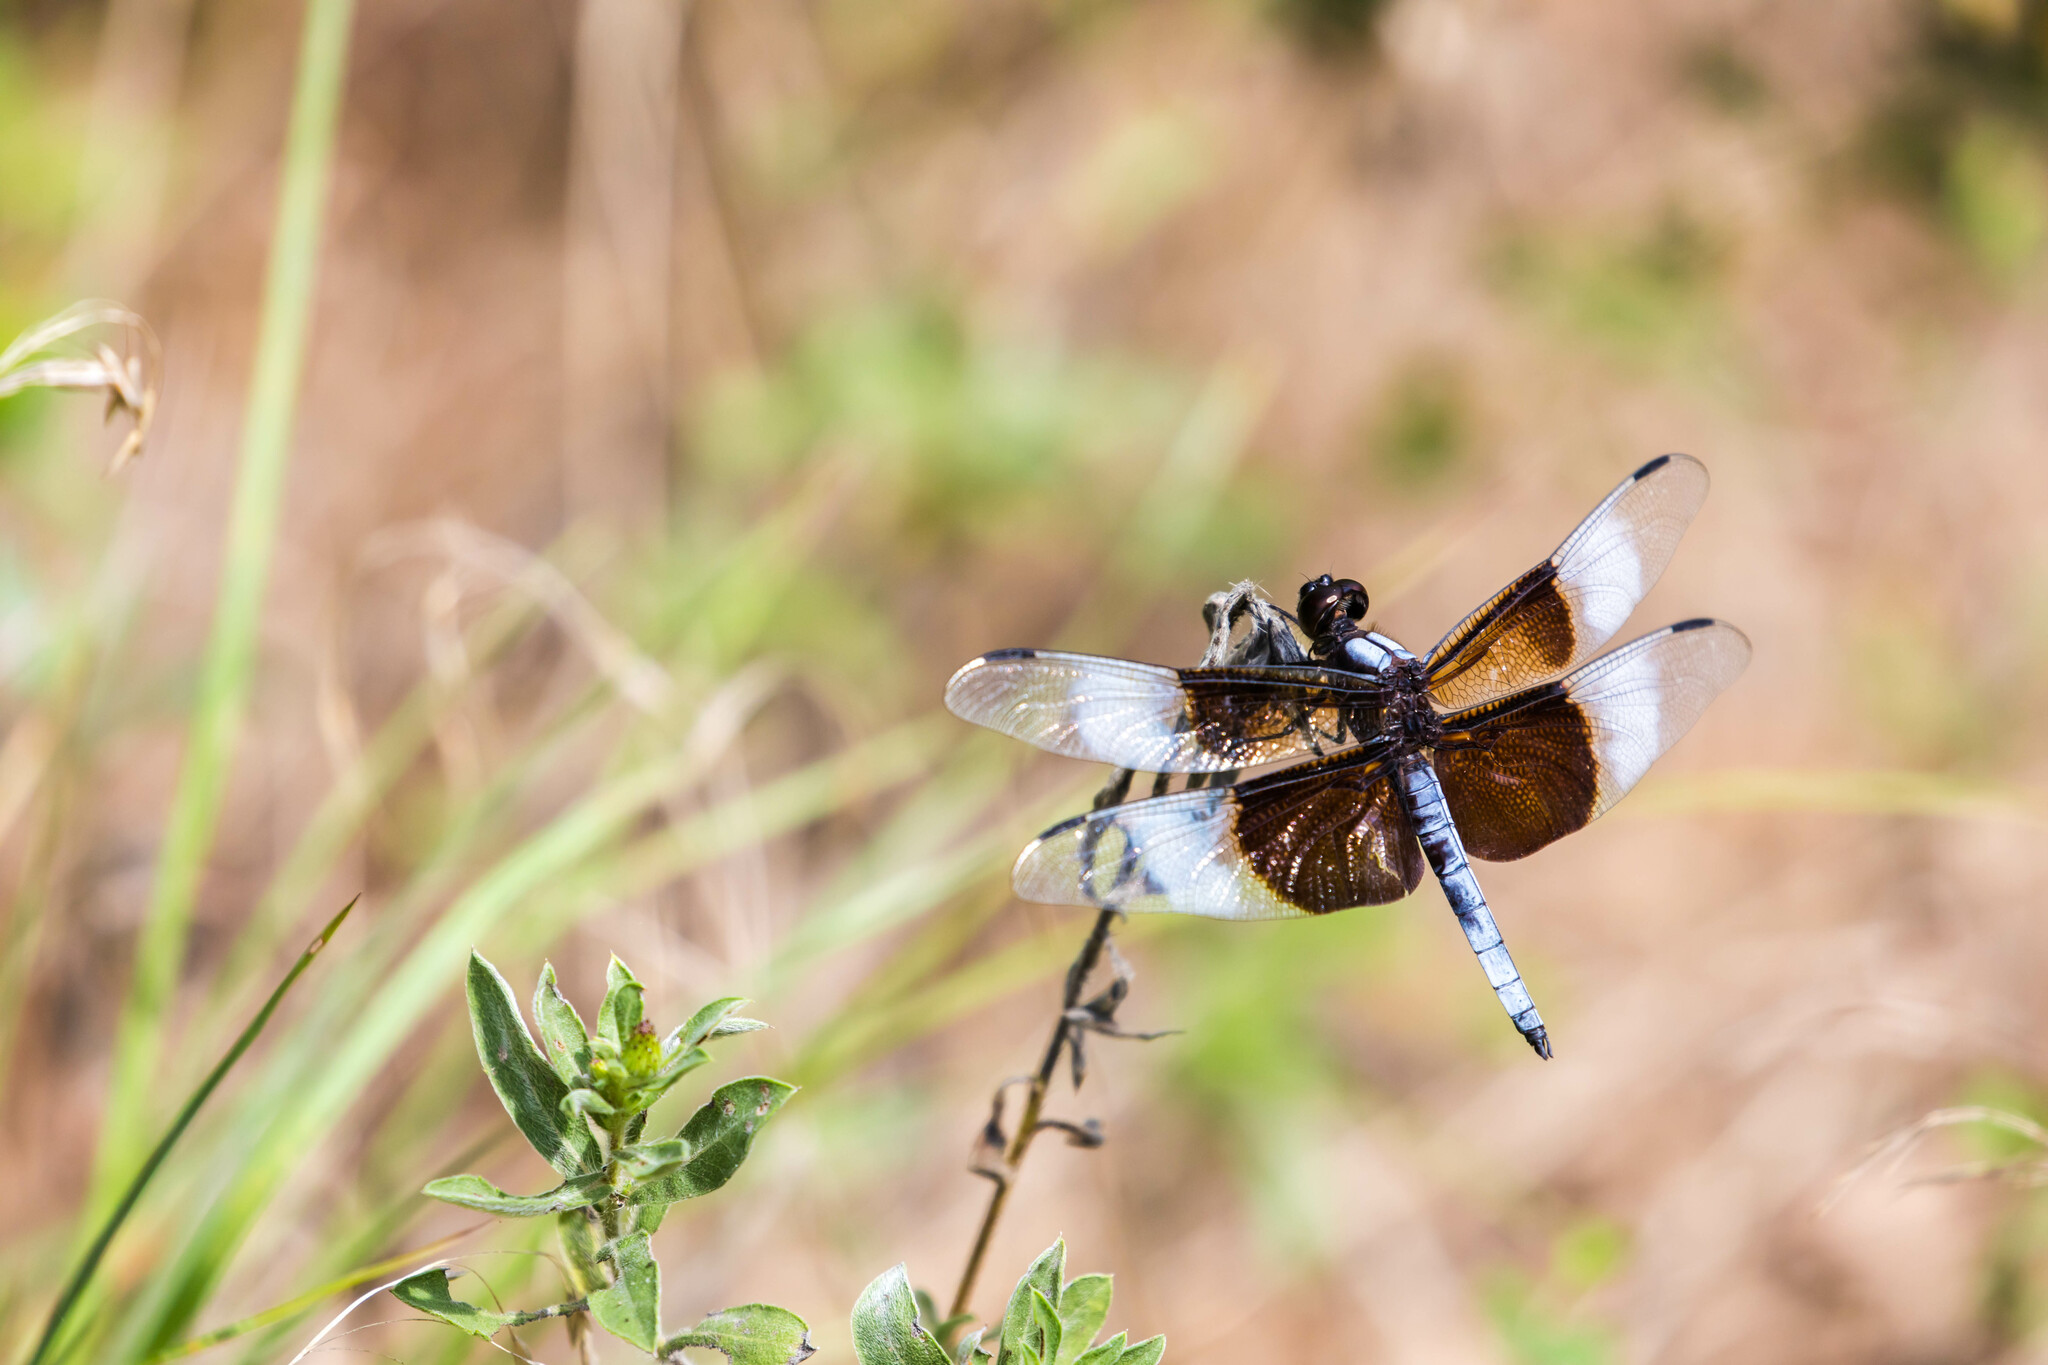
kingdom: Animalia
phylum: Arthropoda
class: Insecta
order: Odonata
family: Libellulidae
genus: Libellula
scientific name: Libellula luctuosa
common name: Widow skimmer
